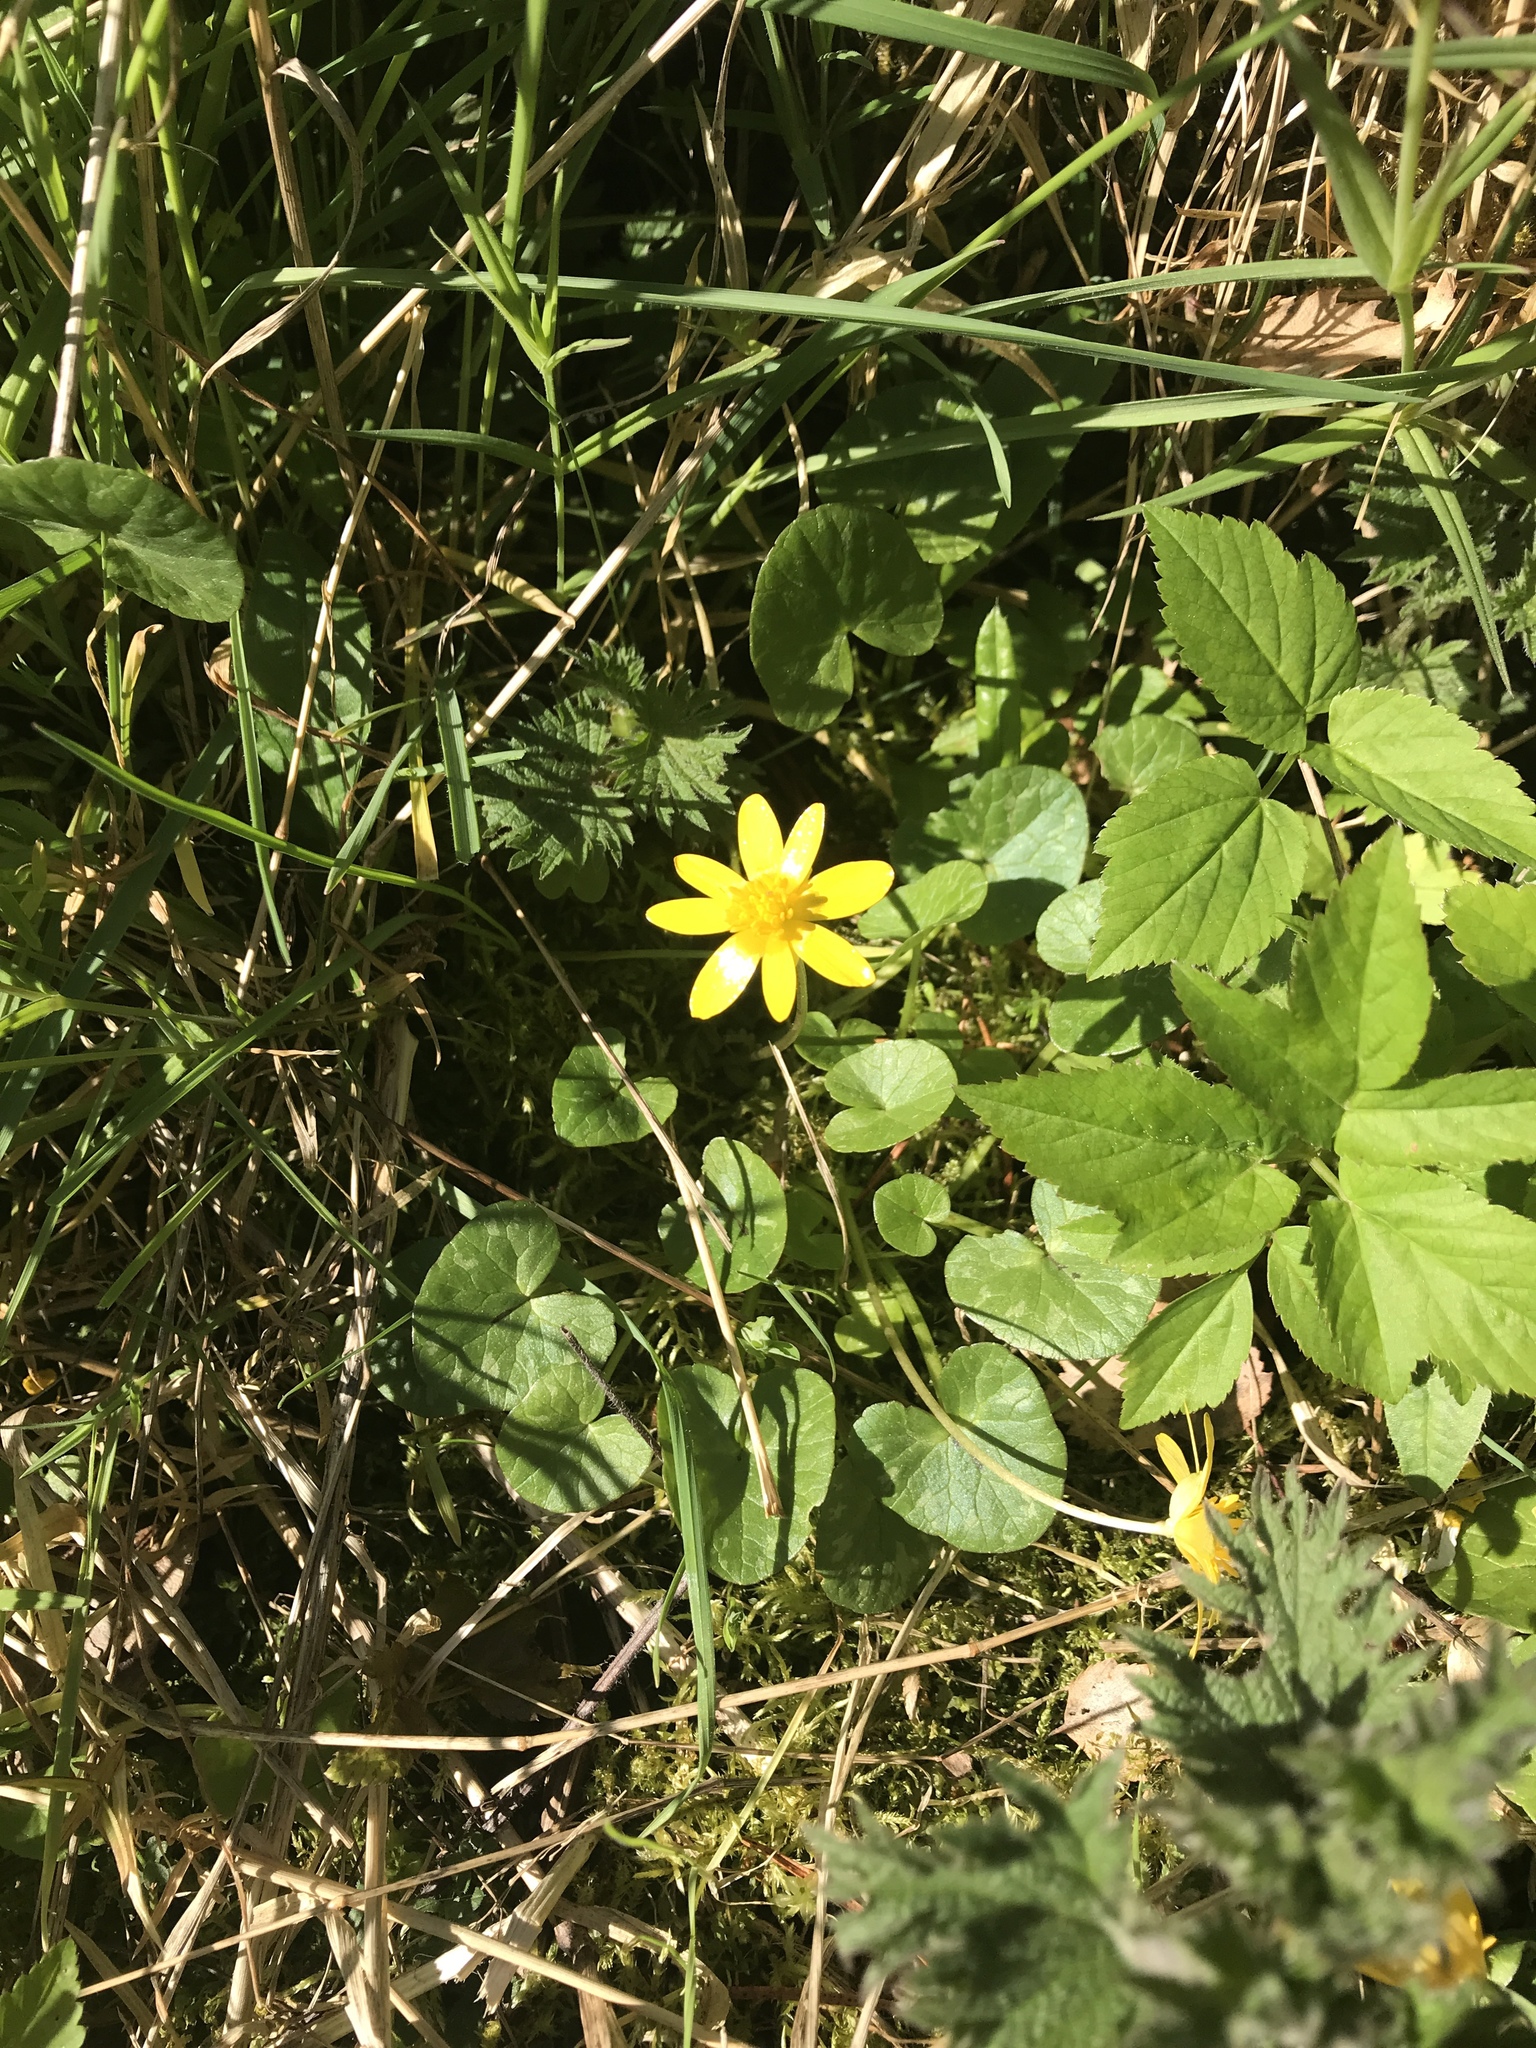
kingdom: Plantae
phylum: Tracheophyta
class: Magnoliopsida
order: Ranunculales
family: Ranunculaceae
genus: Ficaria
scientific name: Ficaria verna
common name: Lesser celandine
